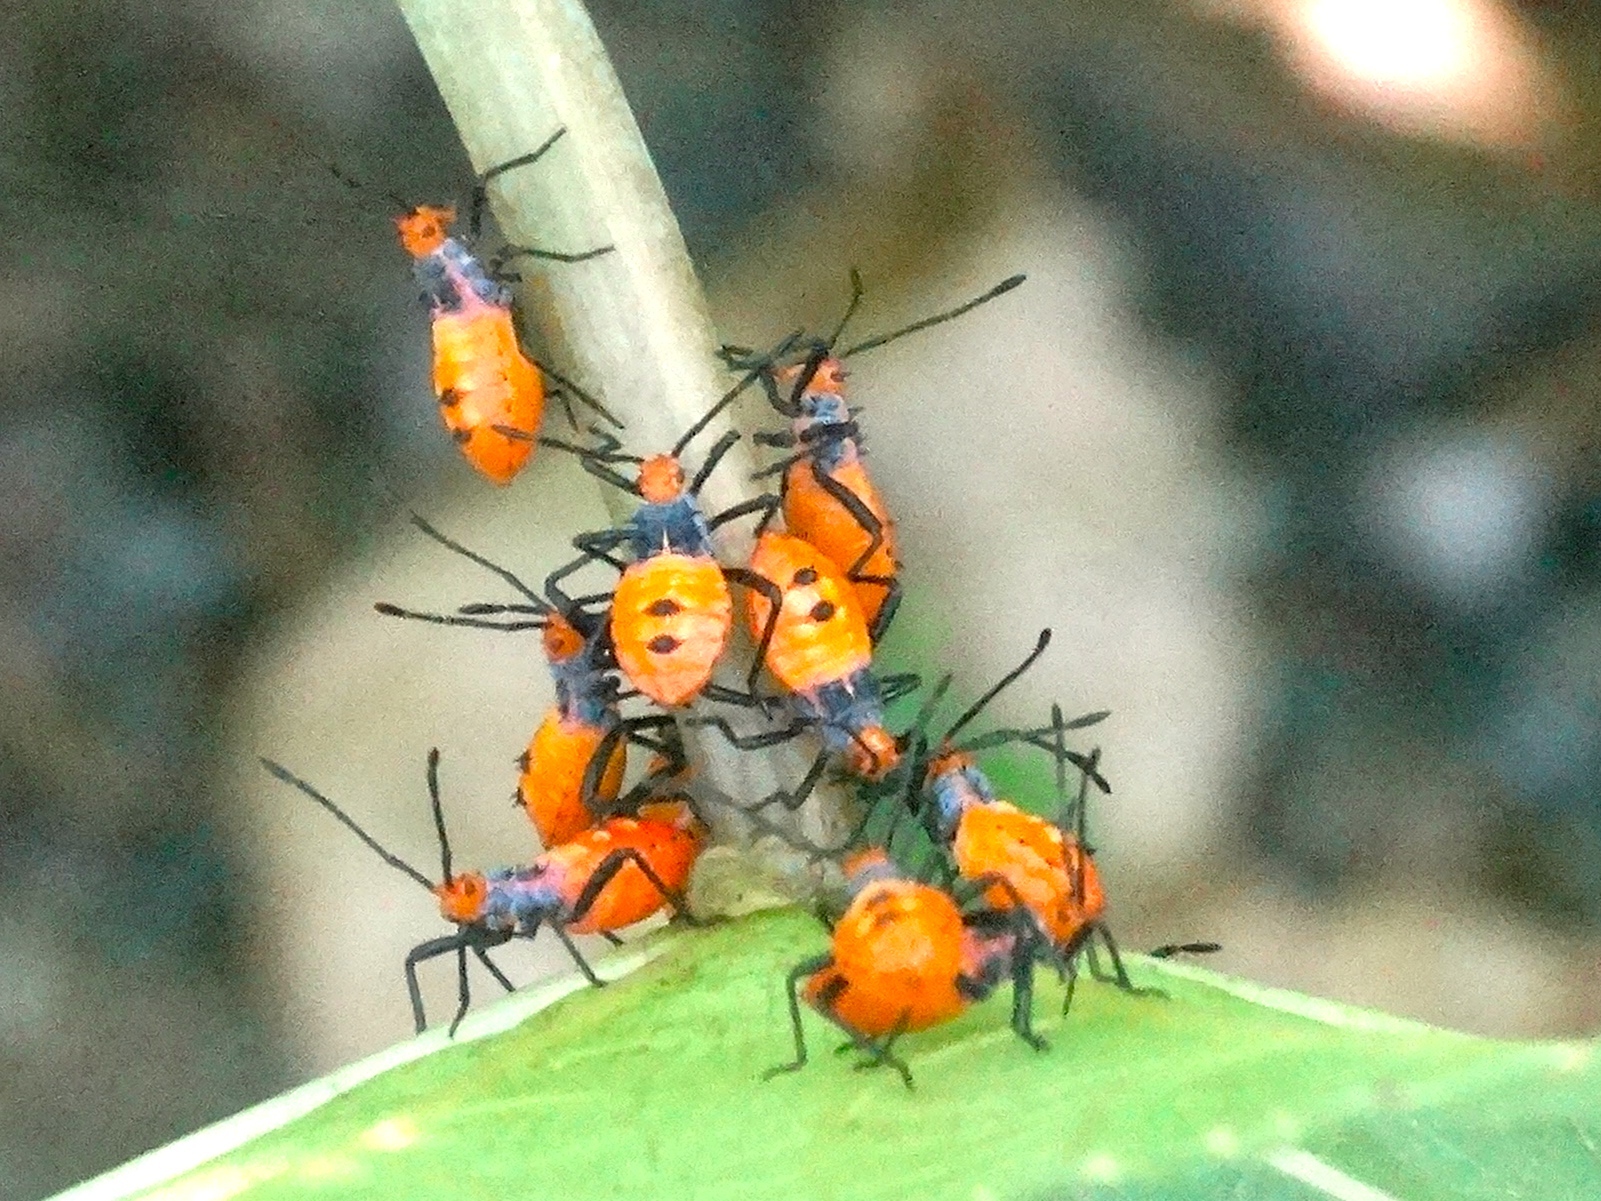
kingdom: Animalia
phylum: Arthropoda
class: Insecta
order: Hemiptera
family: Coreidae
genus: Sagotylus
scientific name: Sagotylus confluens
